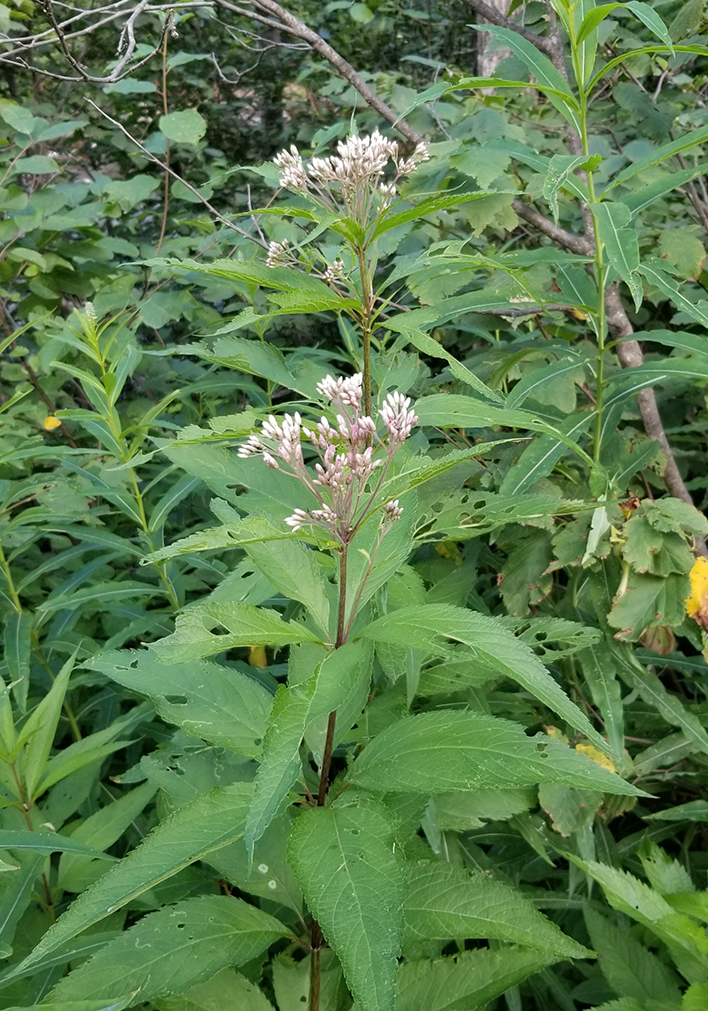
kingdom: Plantae
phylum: Tracheophyta
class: Magnoliopsida
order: Asterales
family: Asteraceae
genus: Eutrochium
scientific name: Eutrochium maculatum
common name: Spotted joe pye weed
